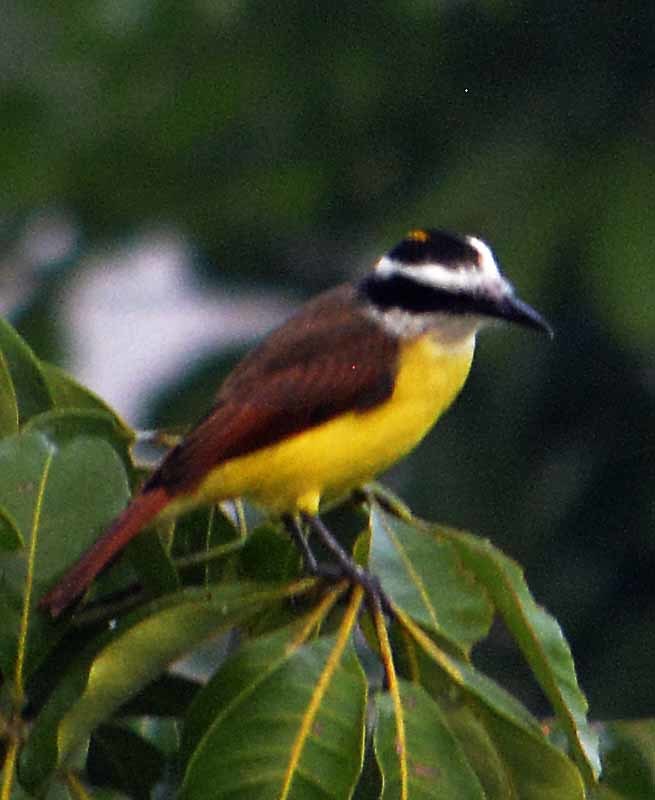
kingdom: Animalia
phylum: Chordata
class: Aves
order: Passeriformes
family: Tyrannidae
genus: Pitangus
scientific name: Pitangus sulphuratus
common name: Great kiskadee
